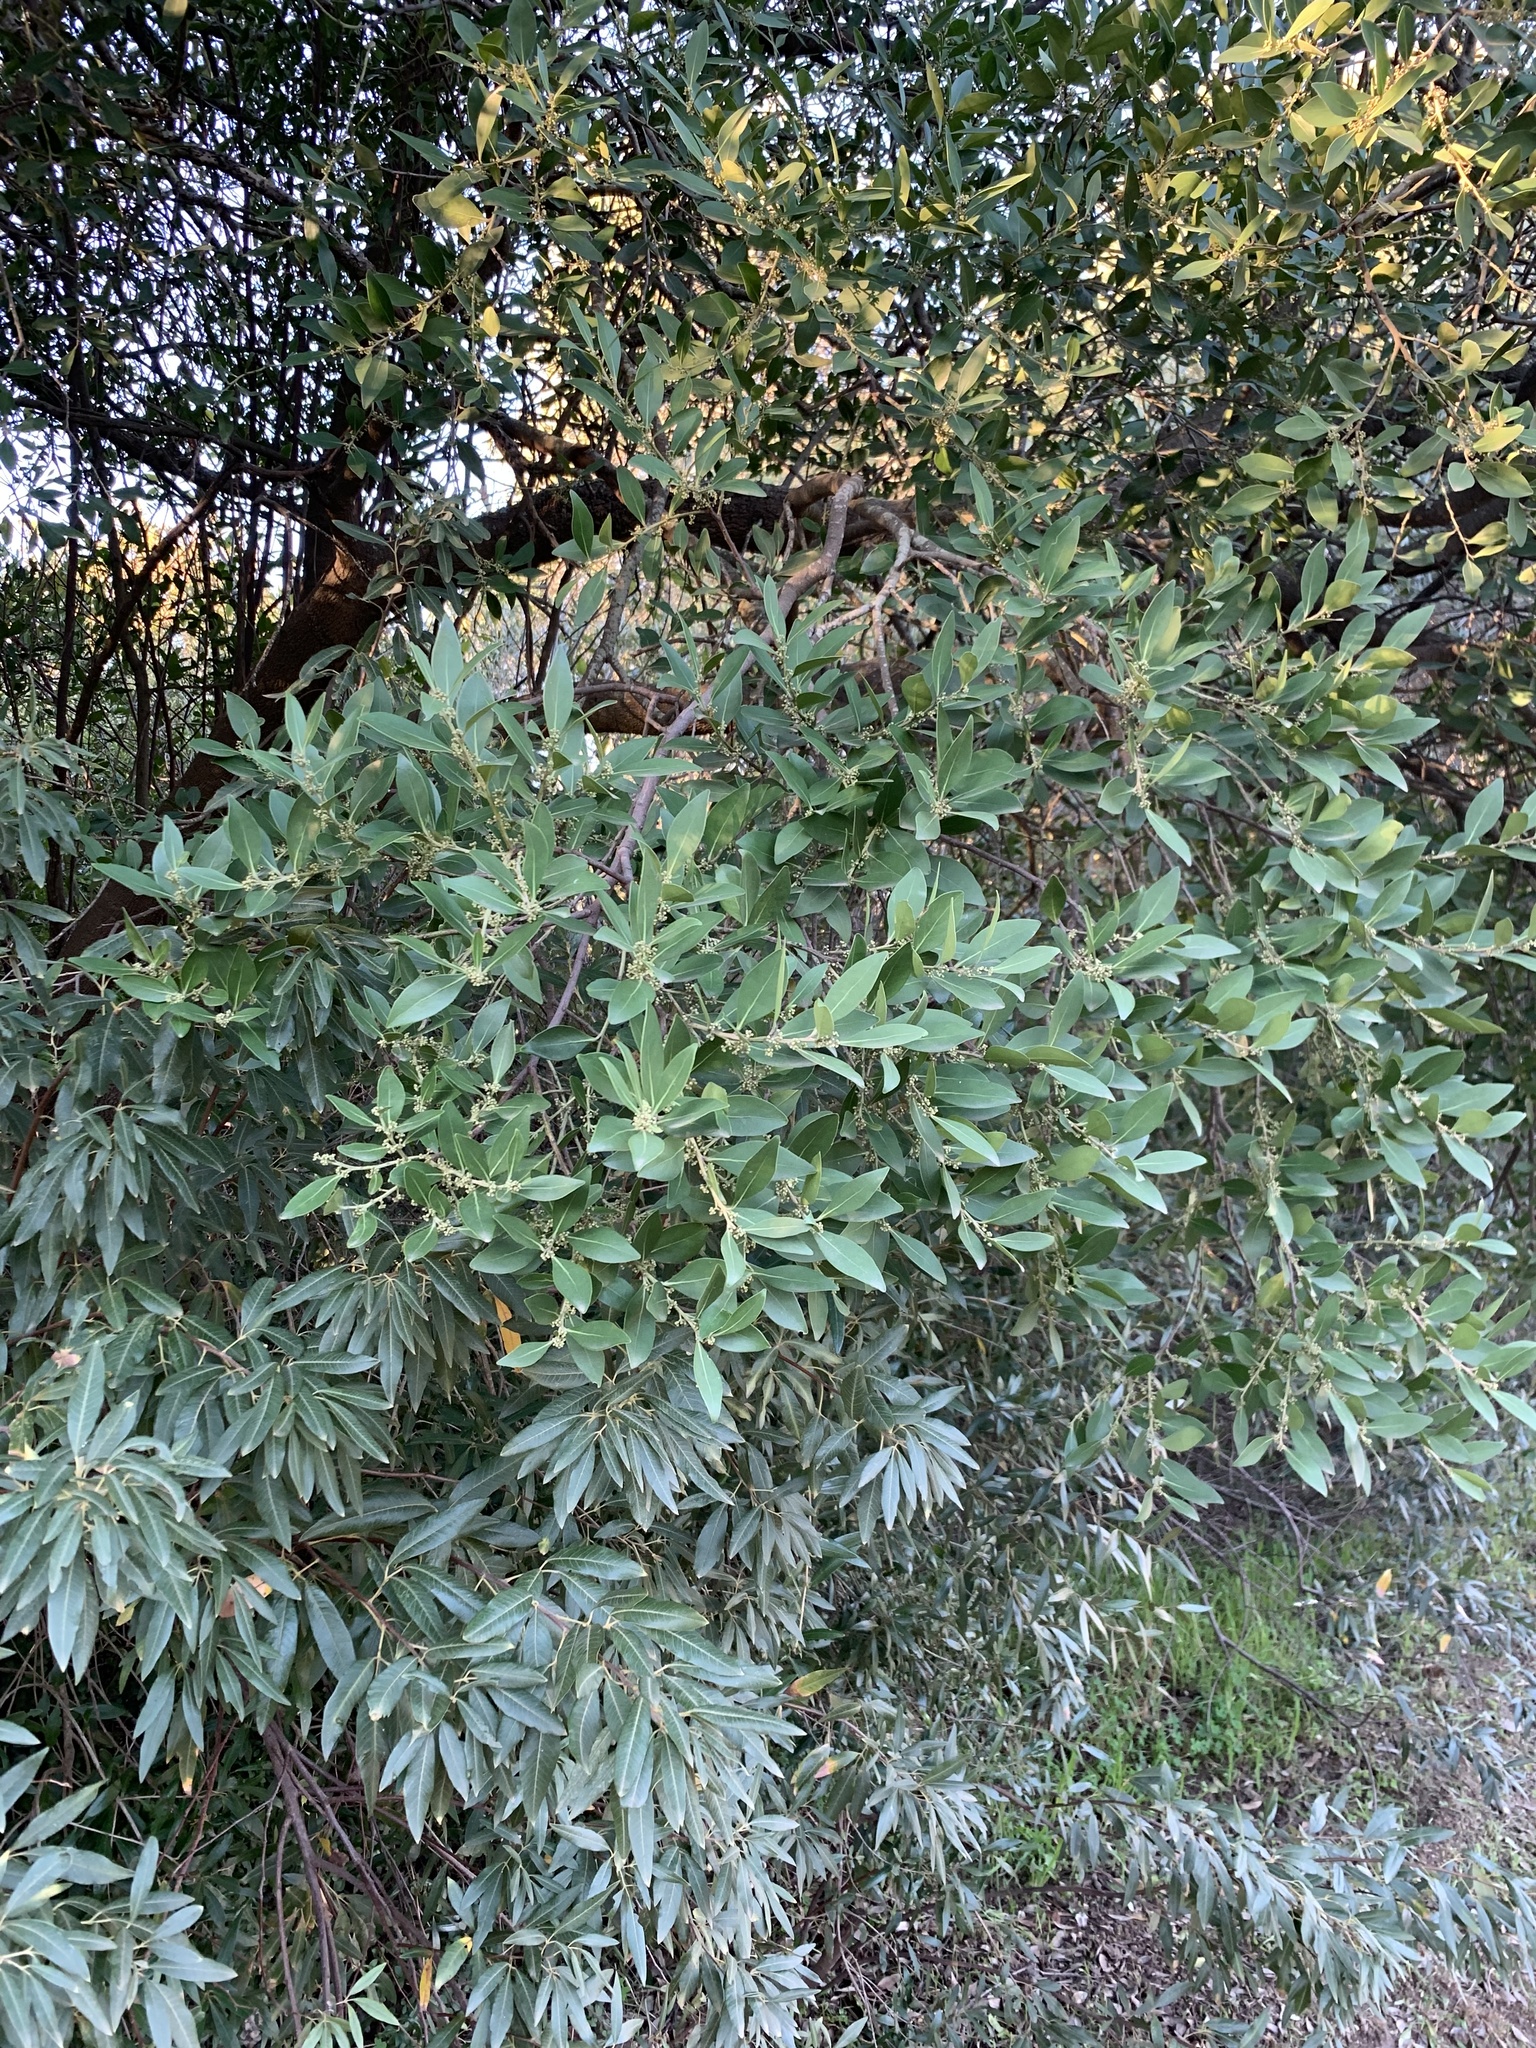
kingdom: Plantae
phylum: Tracheophyta
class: Magnoliopsida
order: Celastrales
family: Celastraceae
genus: Gymnosporia
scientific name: Gymnosporia laurina
